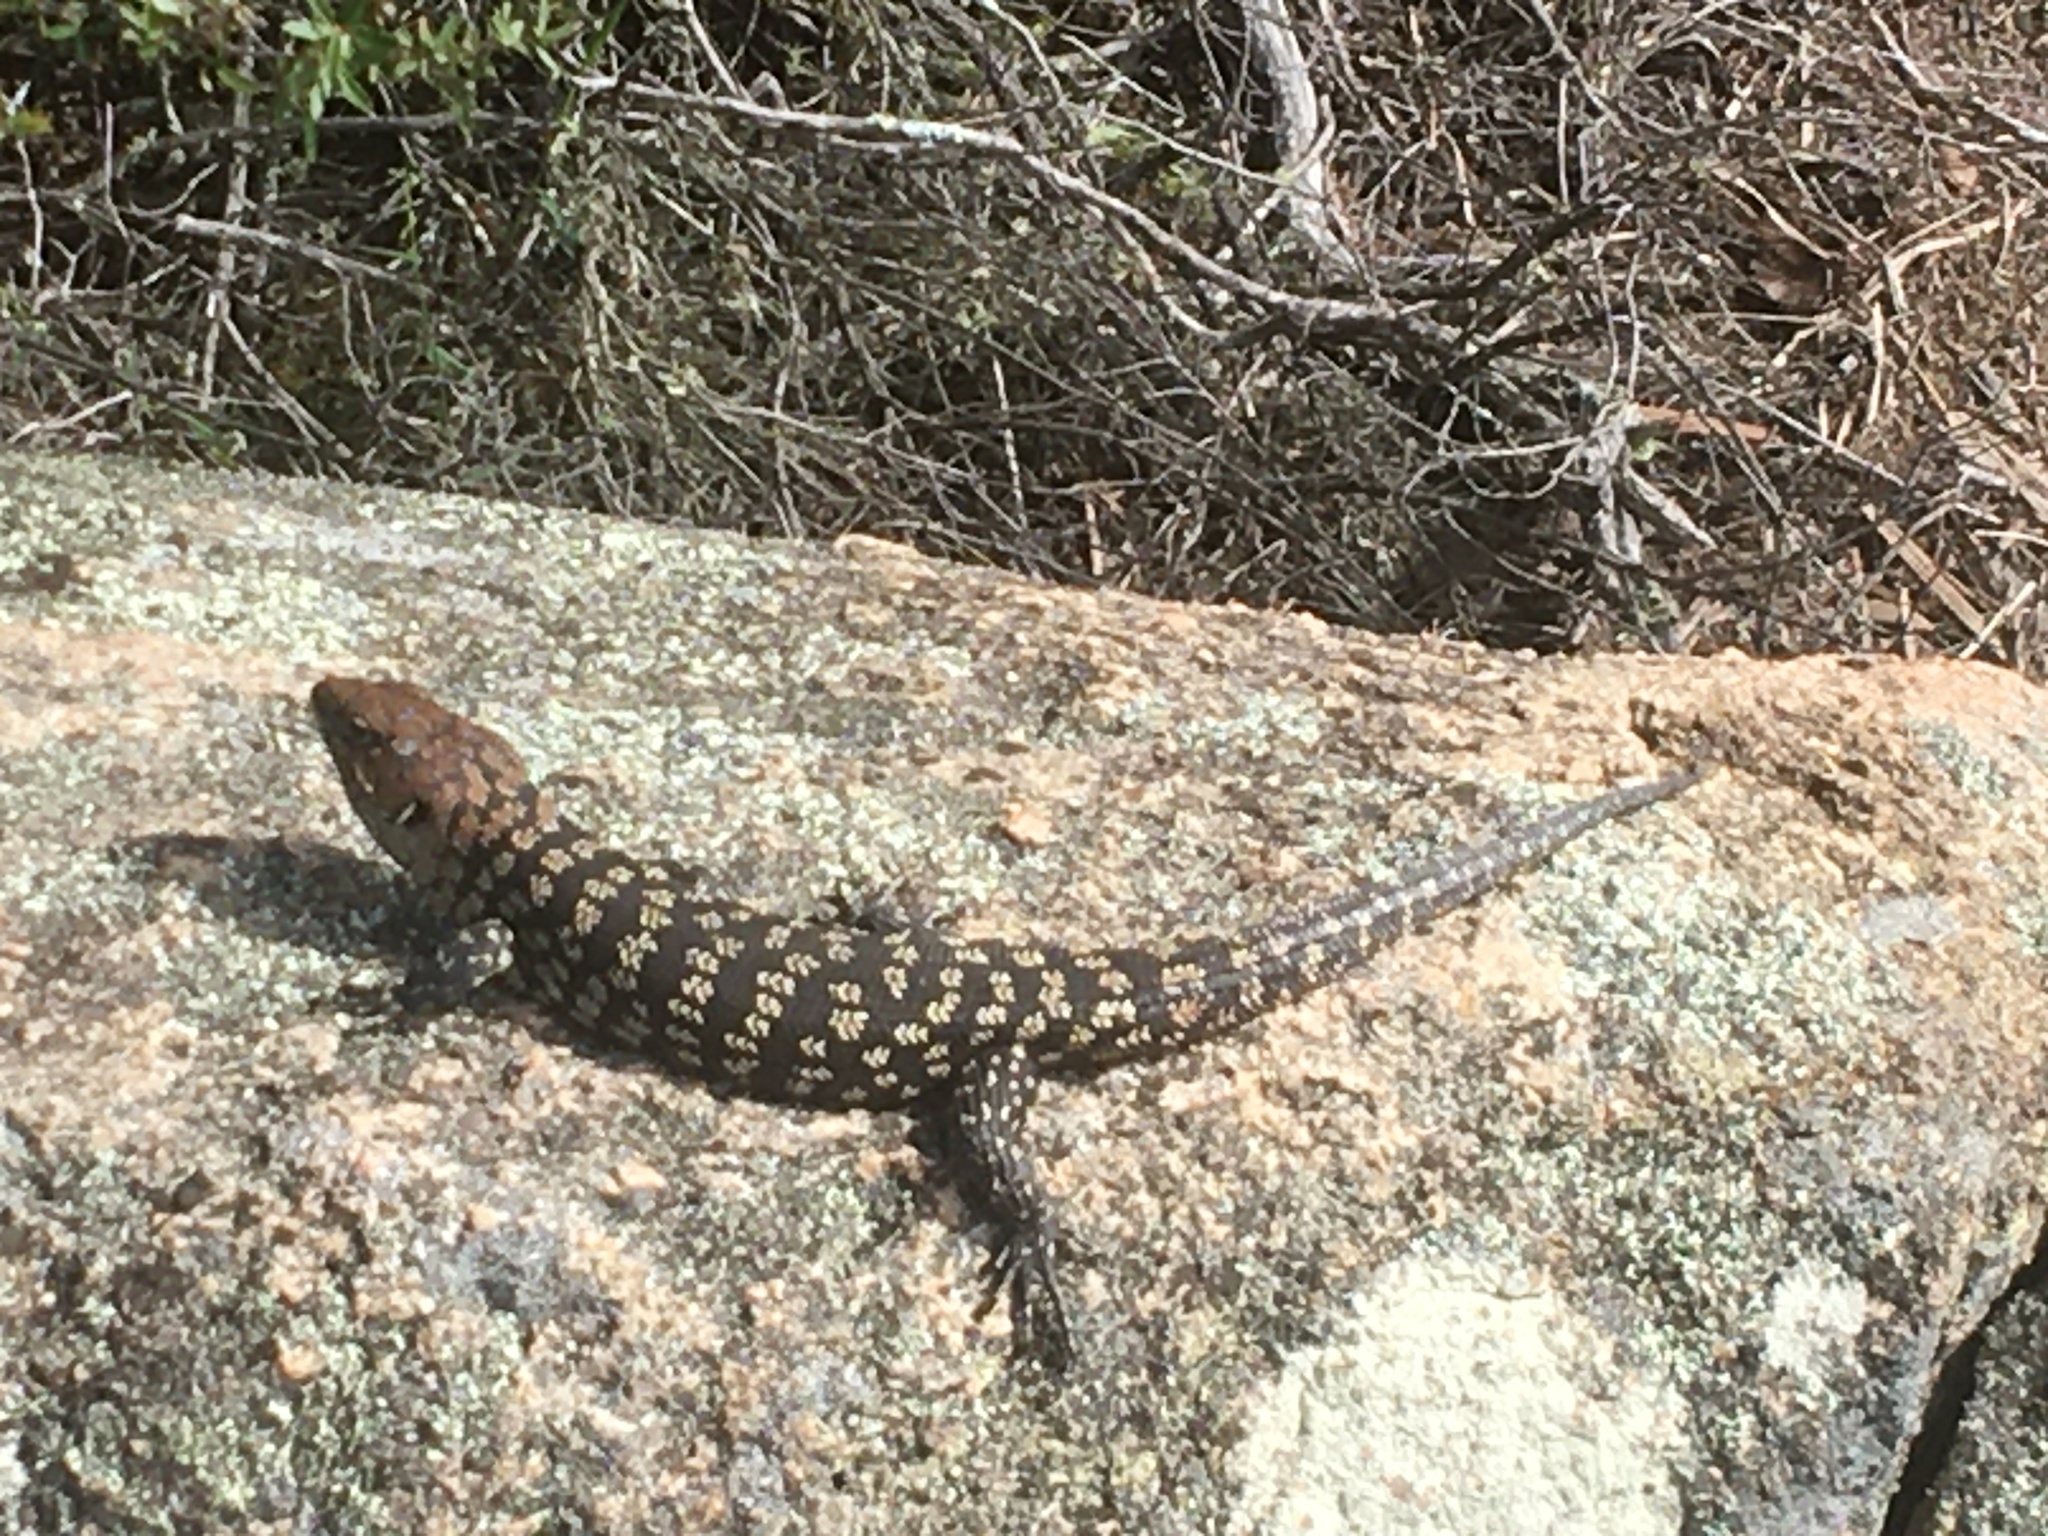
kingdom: Animalia
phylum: Chordata
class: Squamata
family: Scincidae
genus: Egernia
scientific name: Egernia cunninghami
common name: Cunningham's skink
